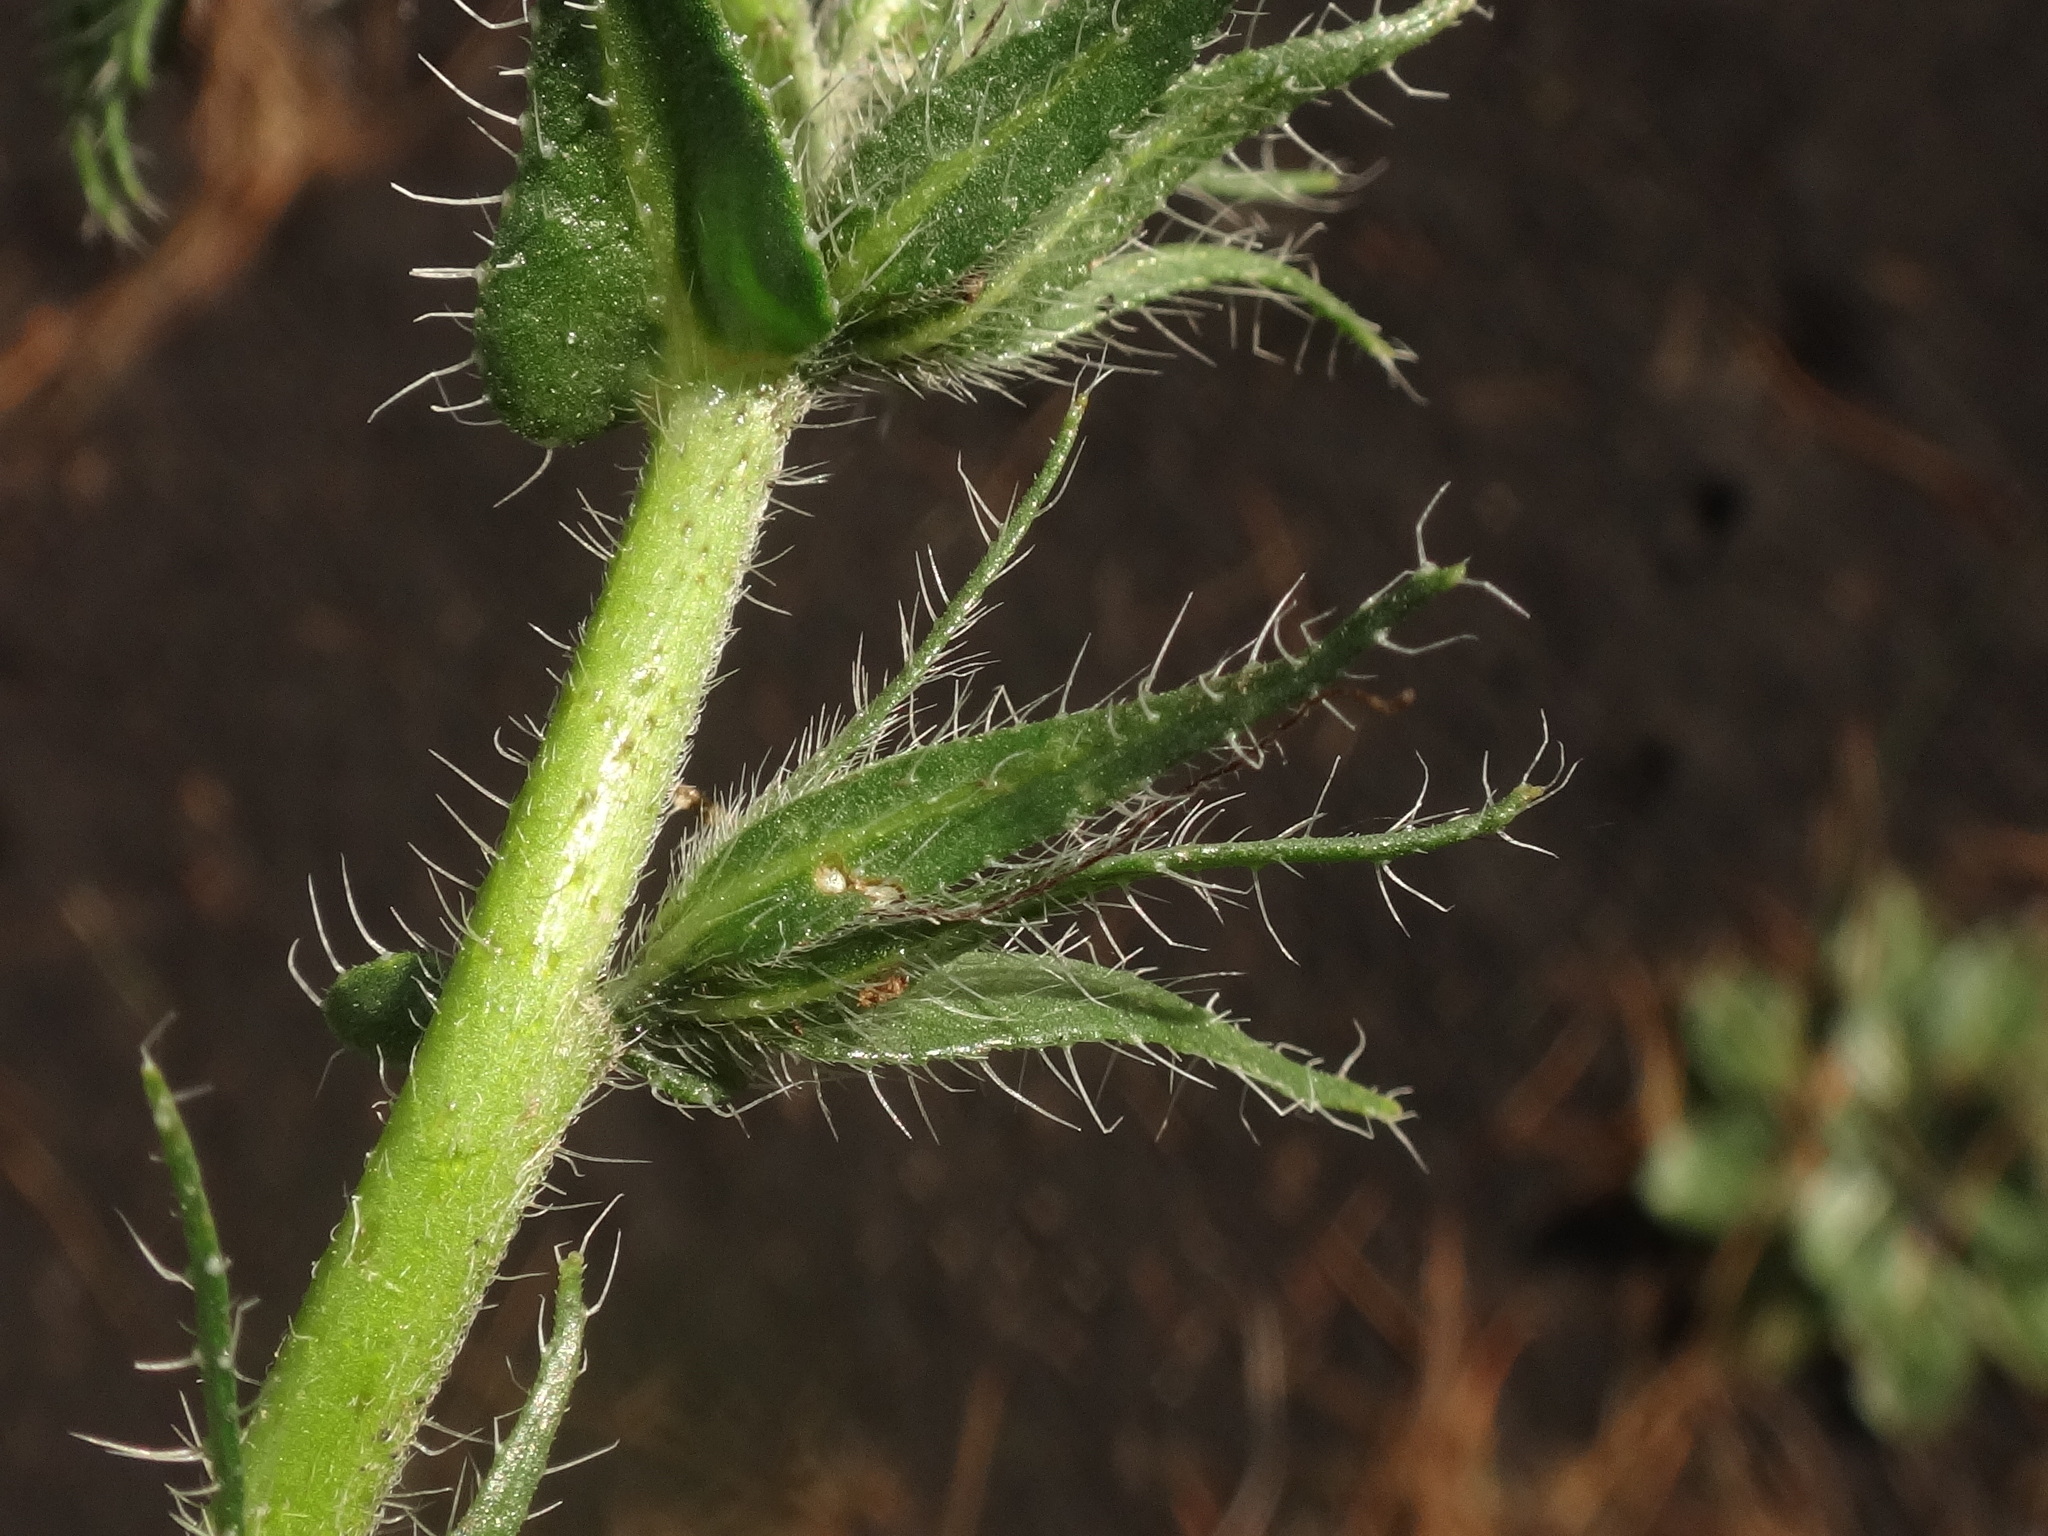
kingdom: Plantae
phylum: Tracheophyta
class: Magnoliopsida
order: Boraginales
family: Boraginaceae
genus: Echium
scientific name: Echium plantagineum
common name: Purple viper's-bugloss
